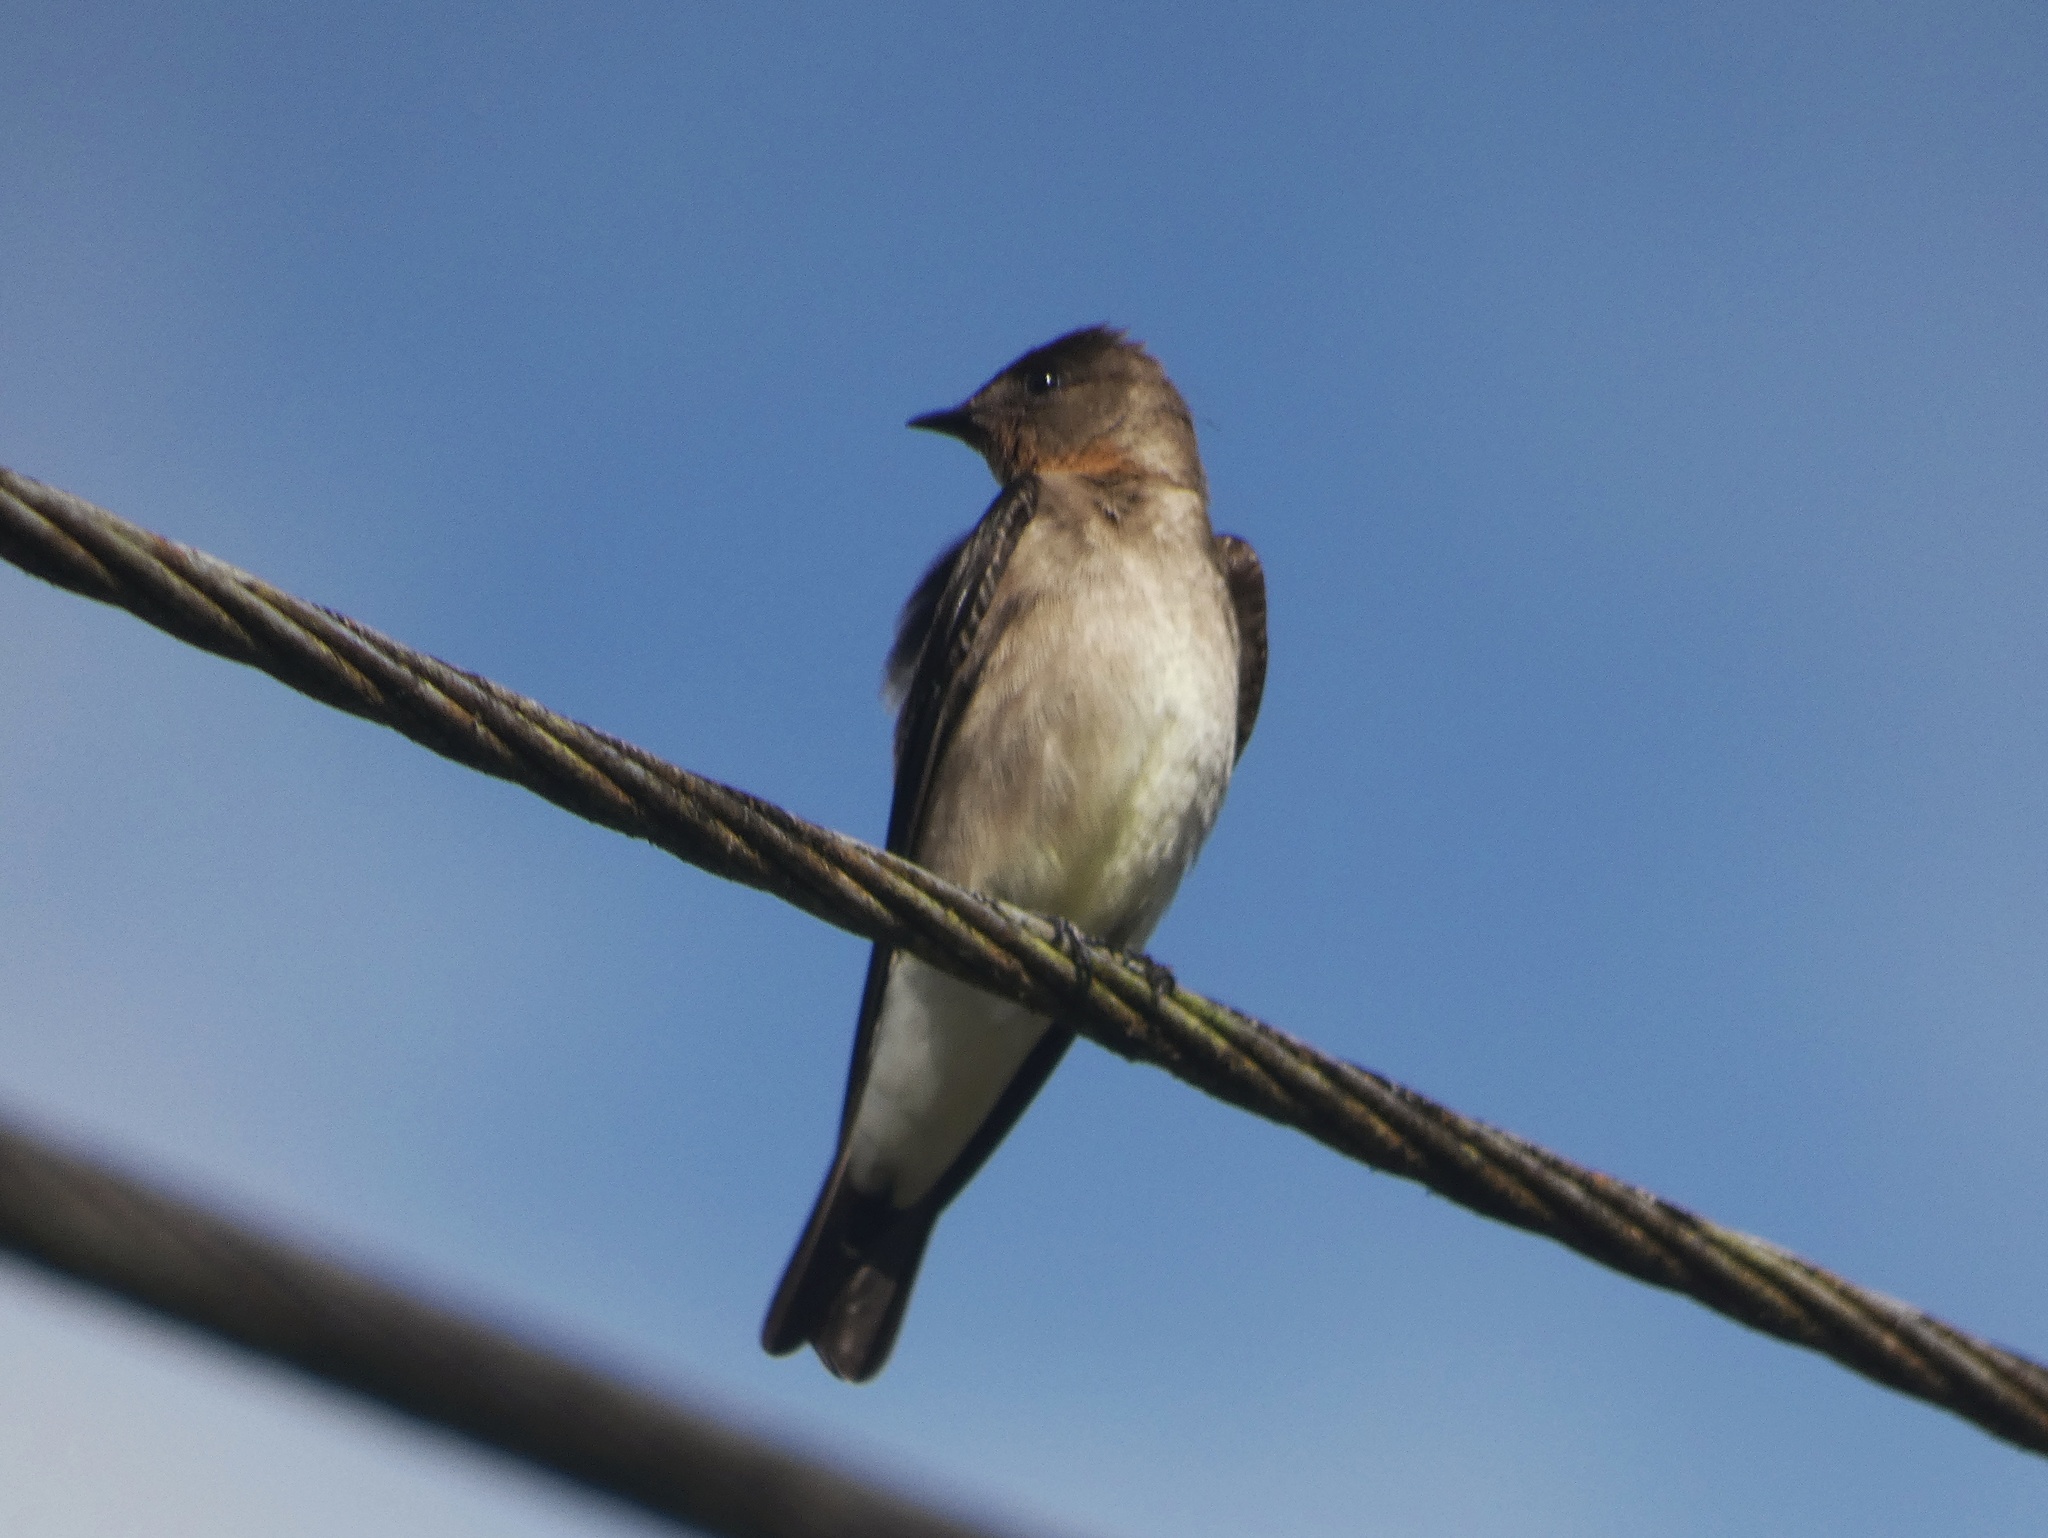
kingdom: Animalia
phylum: Chordata
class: Aves
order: Passeriformes
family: Hirundinidae
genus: Stelgidopteryx
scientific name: Stelgidopteryx ruficollis
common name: Southern rough-winged swallow
